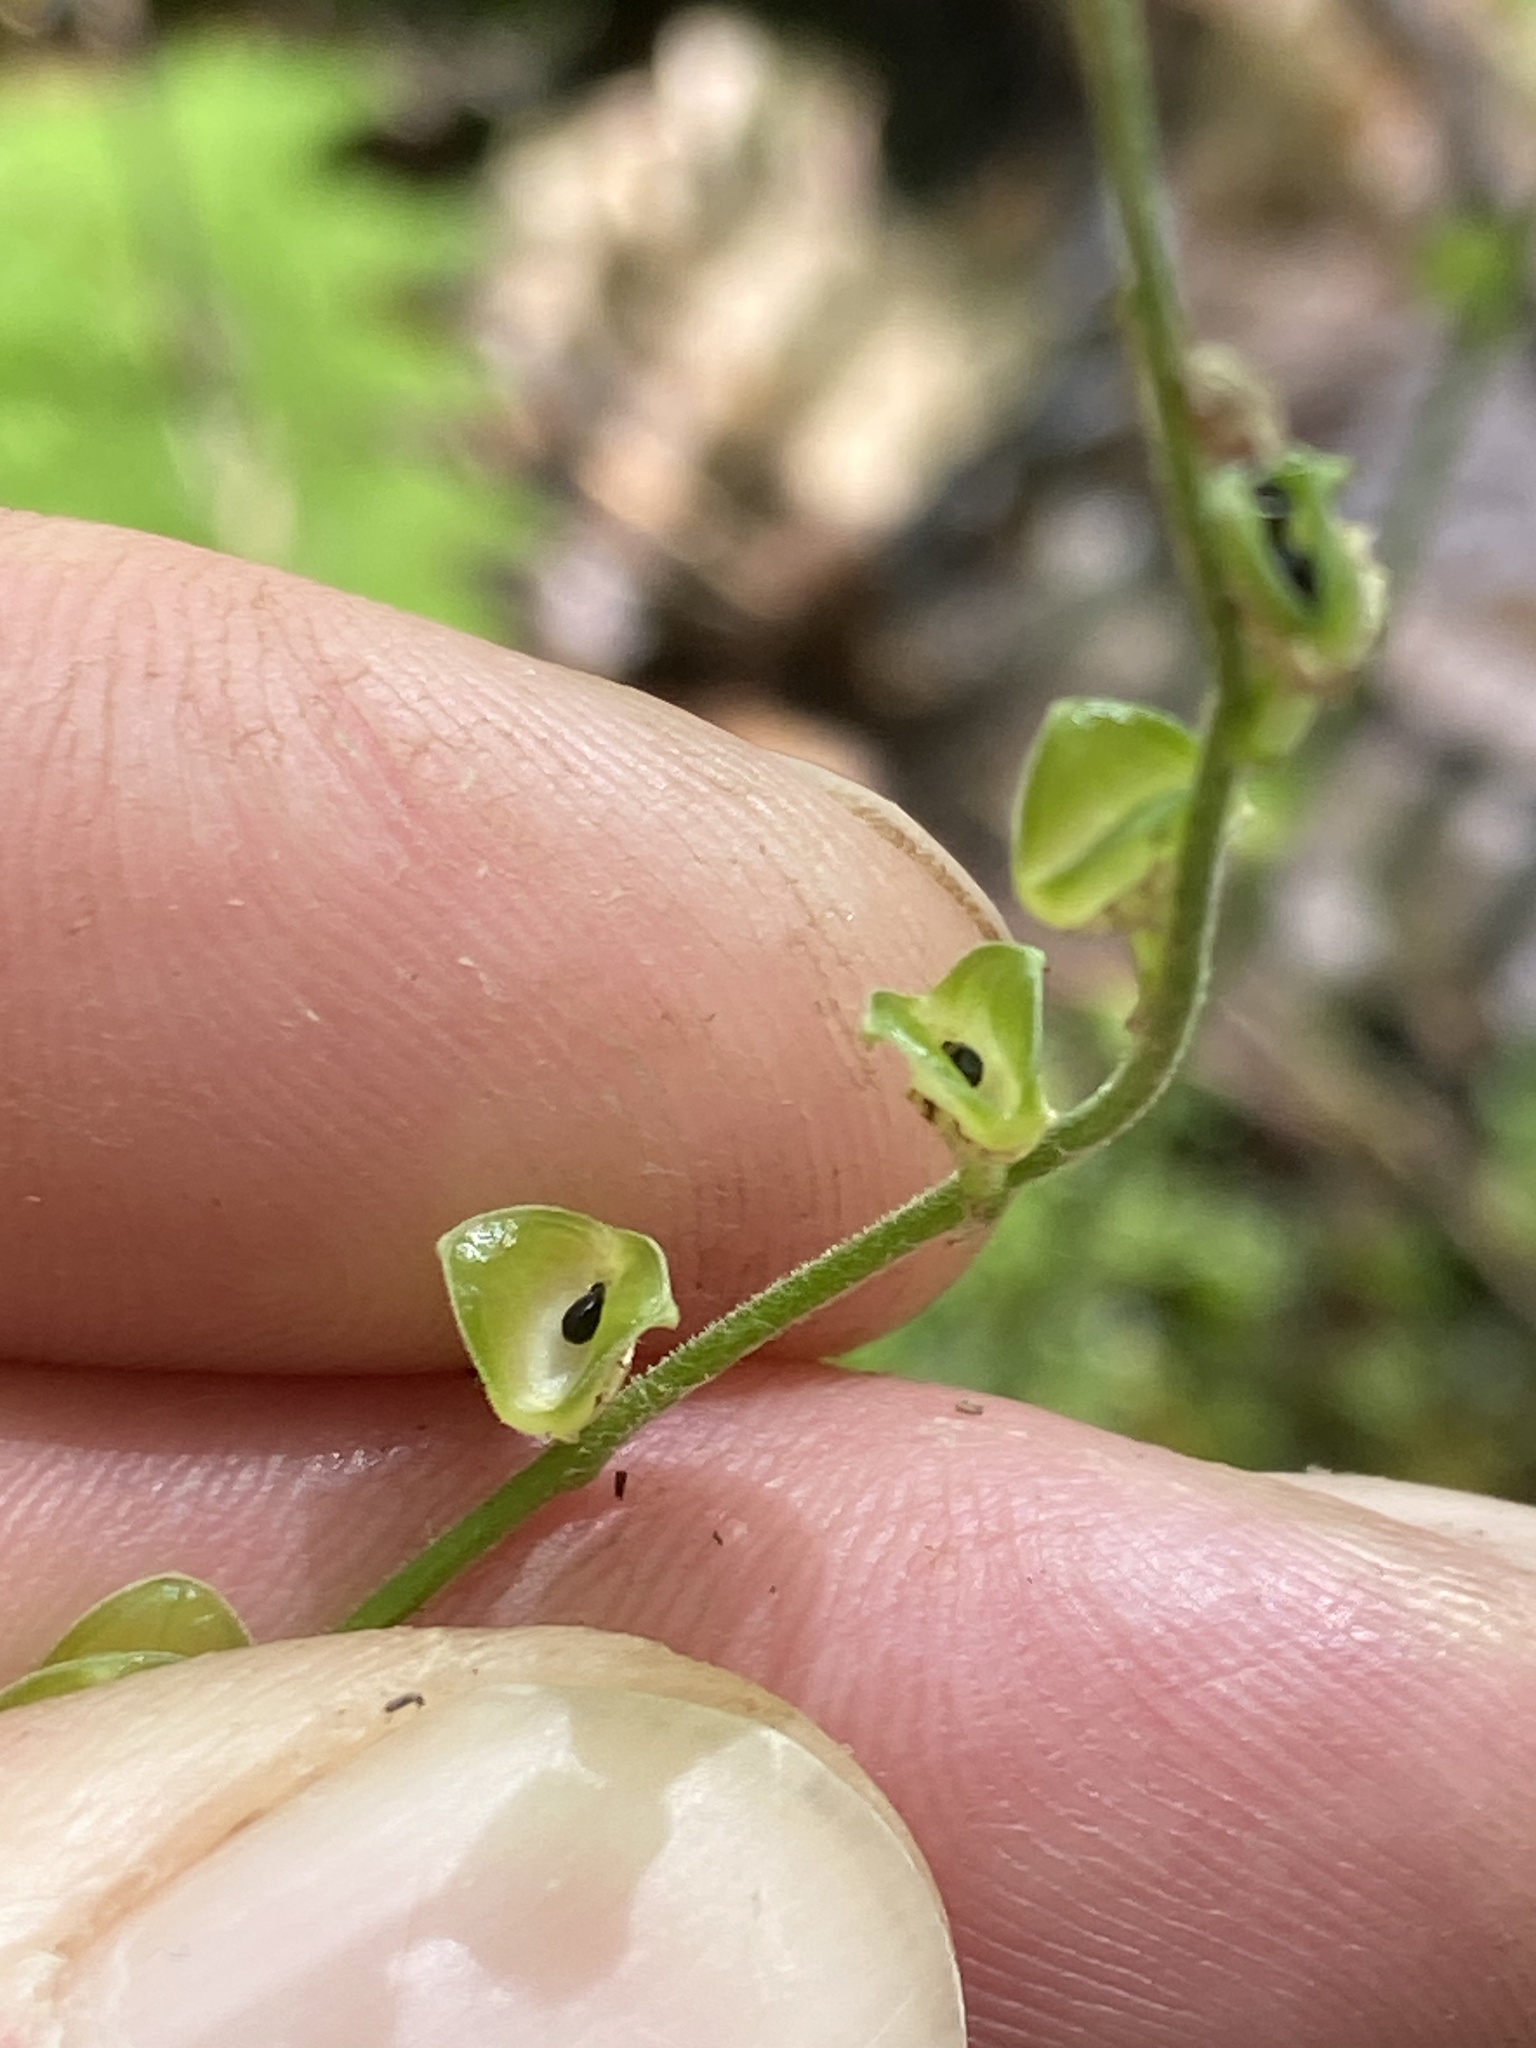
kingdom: Plantae
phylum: Tracheophyta
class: Magnoliopsida
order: Saxifragales
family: Saxifragaceae
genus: Mitella
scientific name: Mitella diphylla
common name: Coolwort
